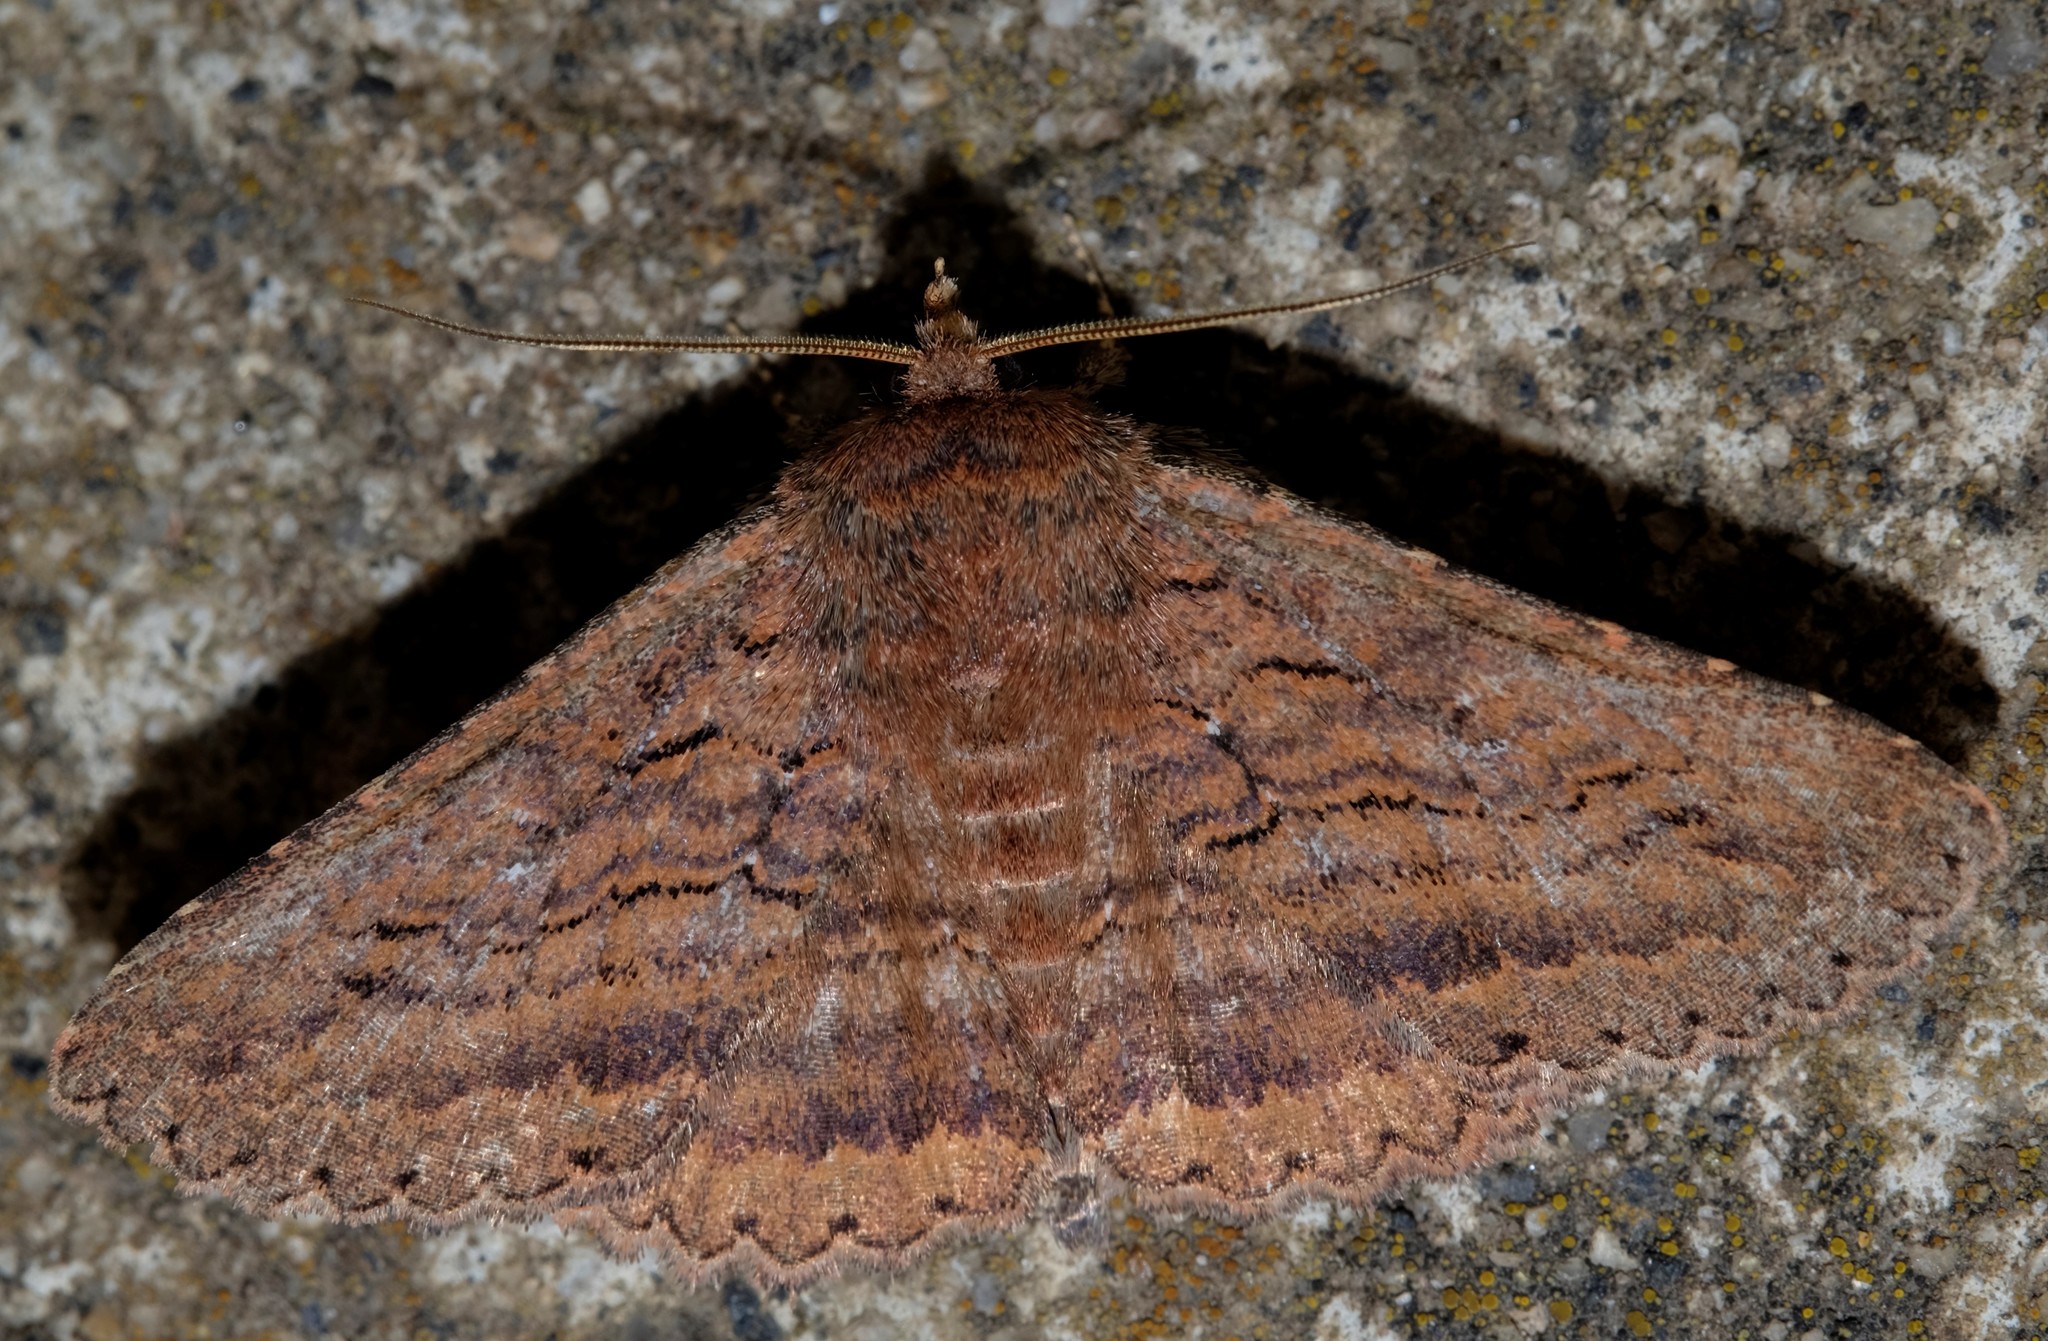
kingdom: Animalia
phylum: Arthropoda
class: Insecta
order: Lepidoptera
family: Erebidae
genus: Praxis
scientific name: Praxis porphyretica
